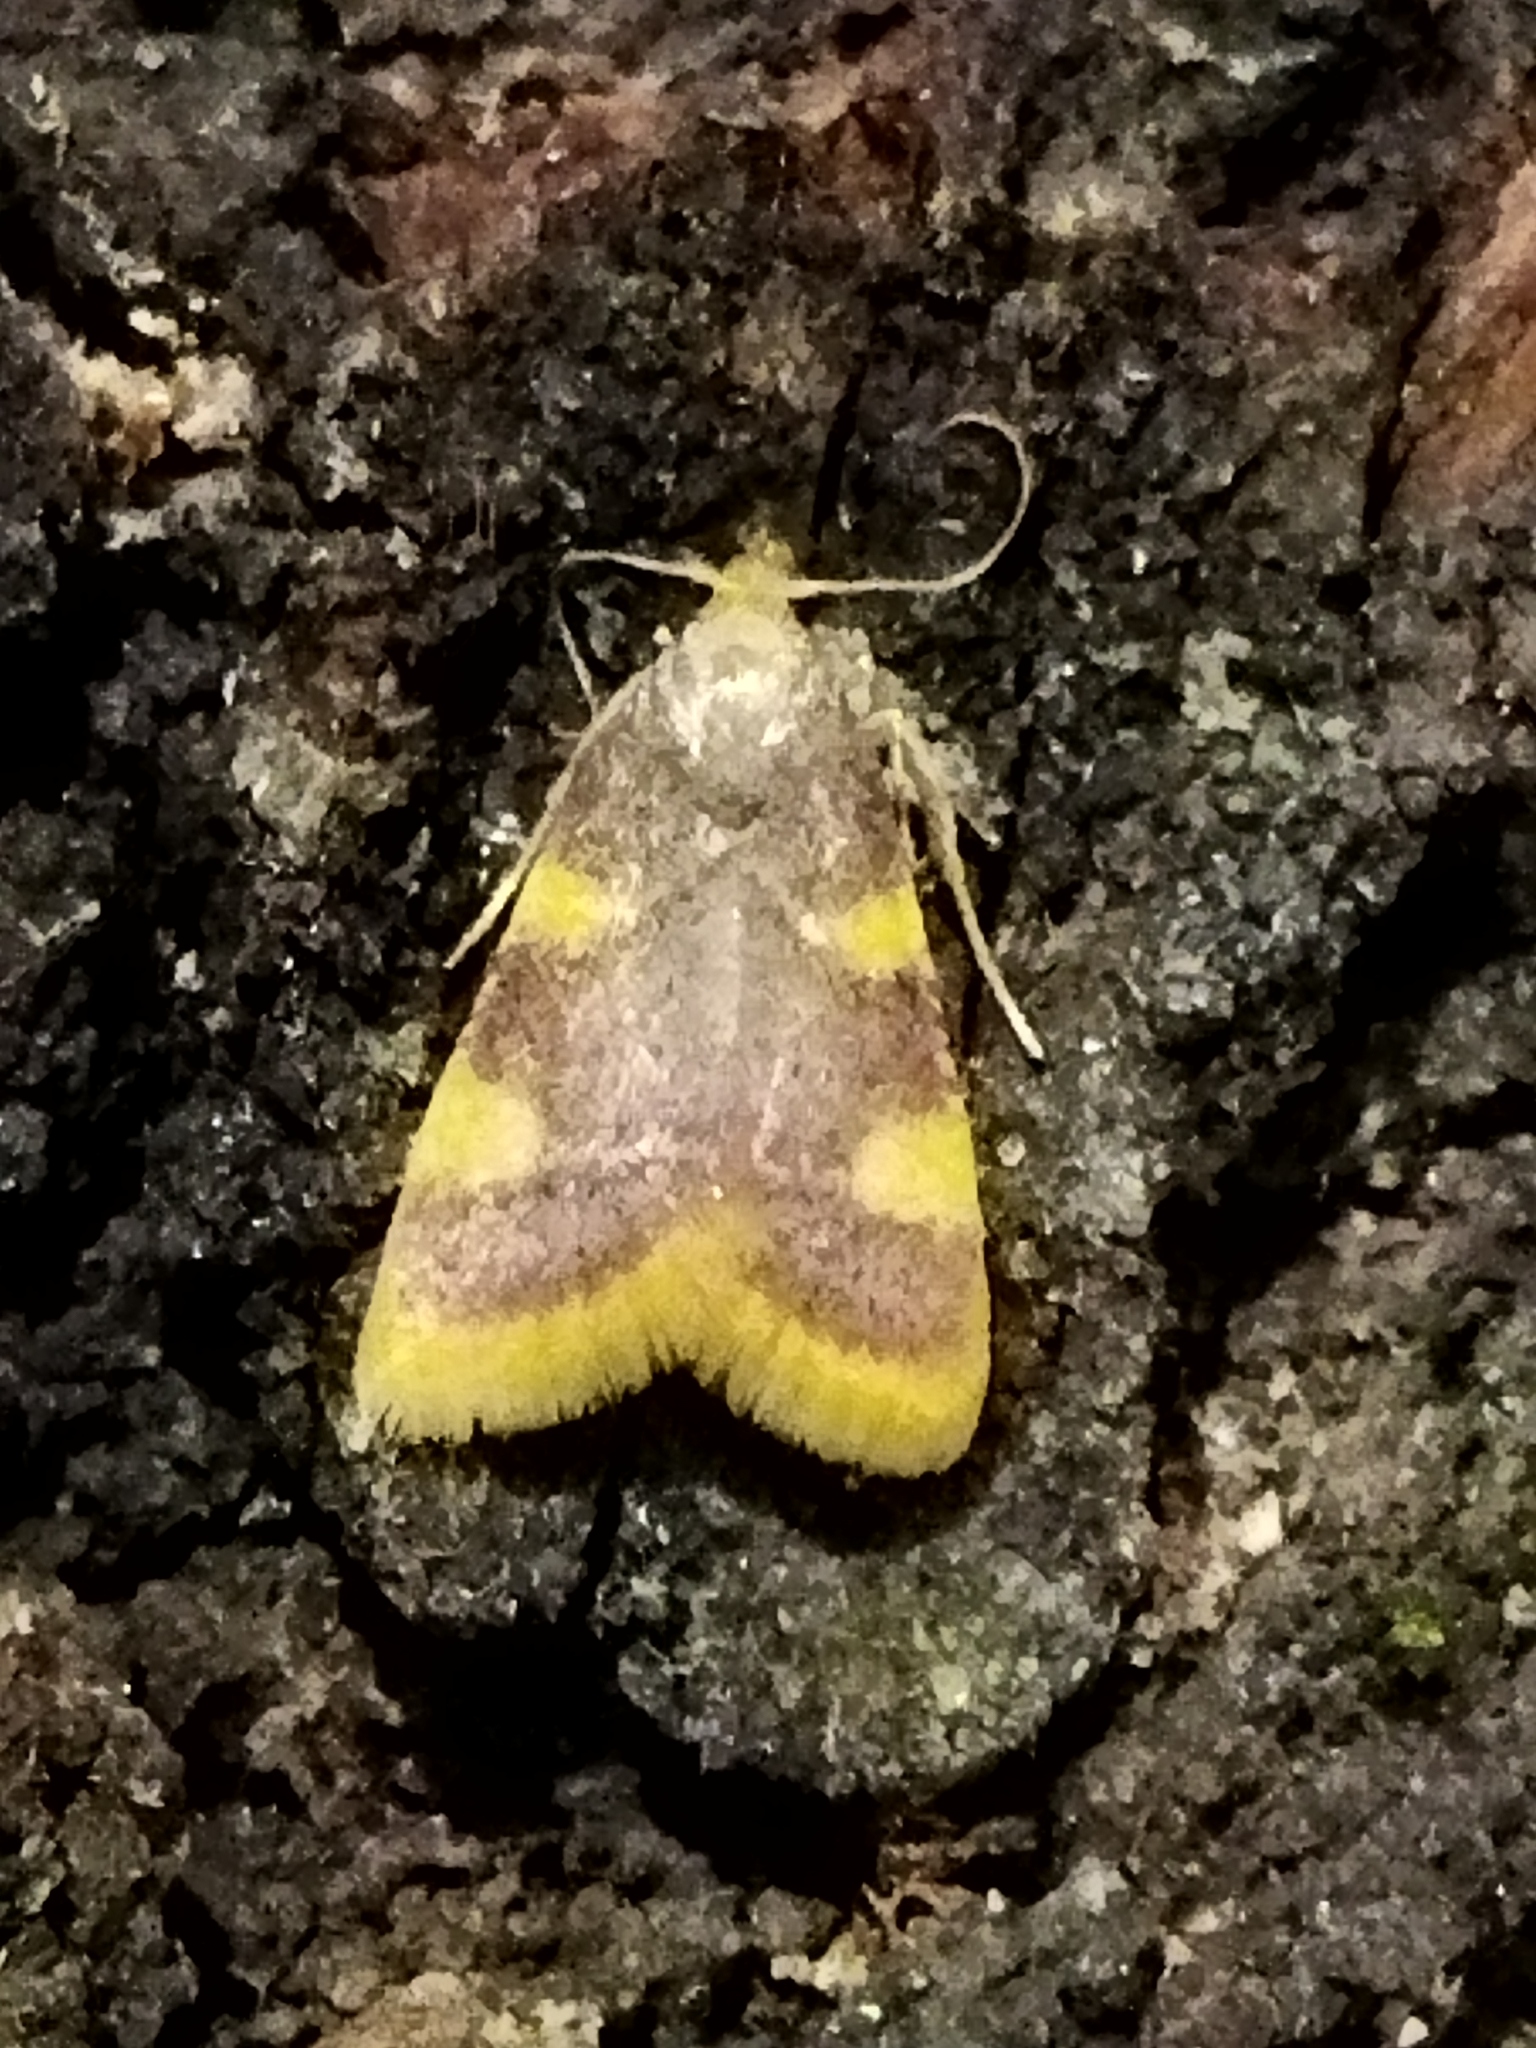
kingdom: Animalia
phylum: Arthropoda
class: Insecta
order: Lepidoptera
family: Pyralidae
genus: Hypsopygia
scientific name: Hypsopygia costalis
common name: Gold triangle
